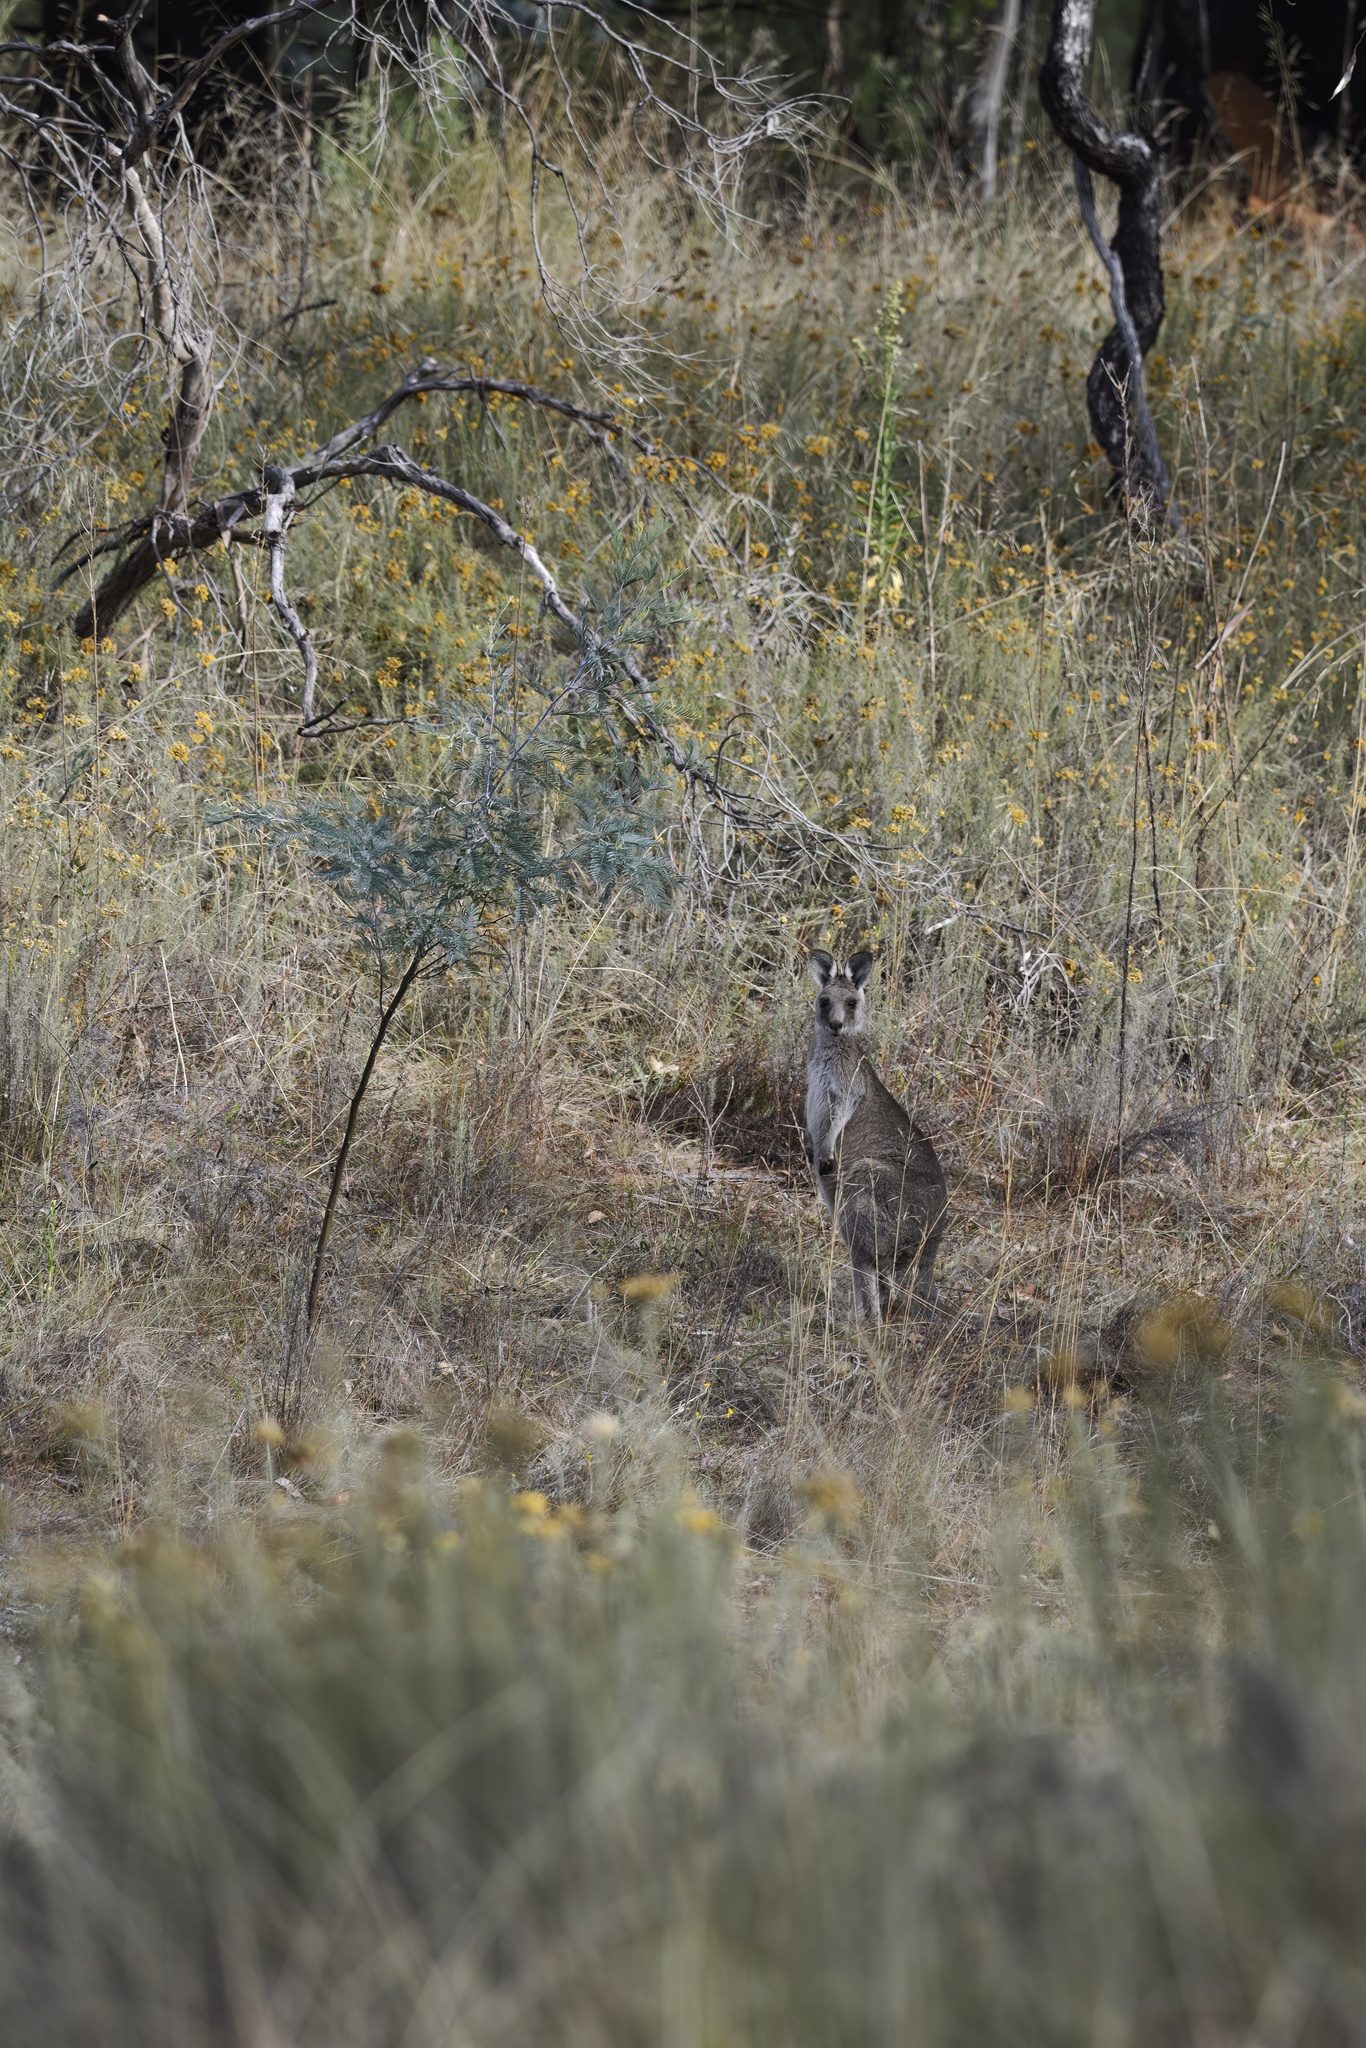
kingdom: Animalia
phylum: Chordata
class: Mammalia
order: Diprotodontia
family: Macropodidae
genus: Macropus
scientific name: Macropus giganteus
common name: Eastern grey kangaroo
